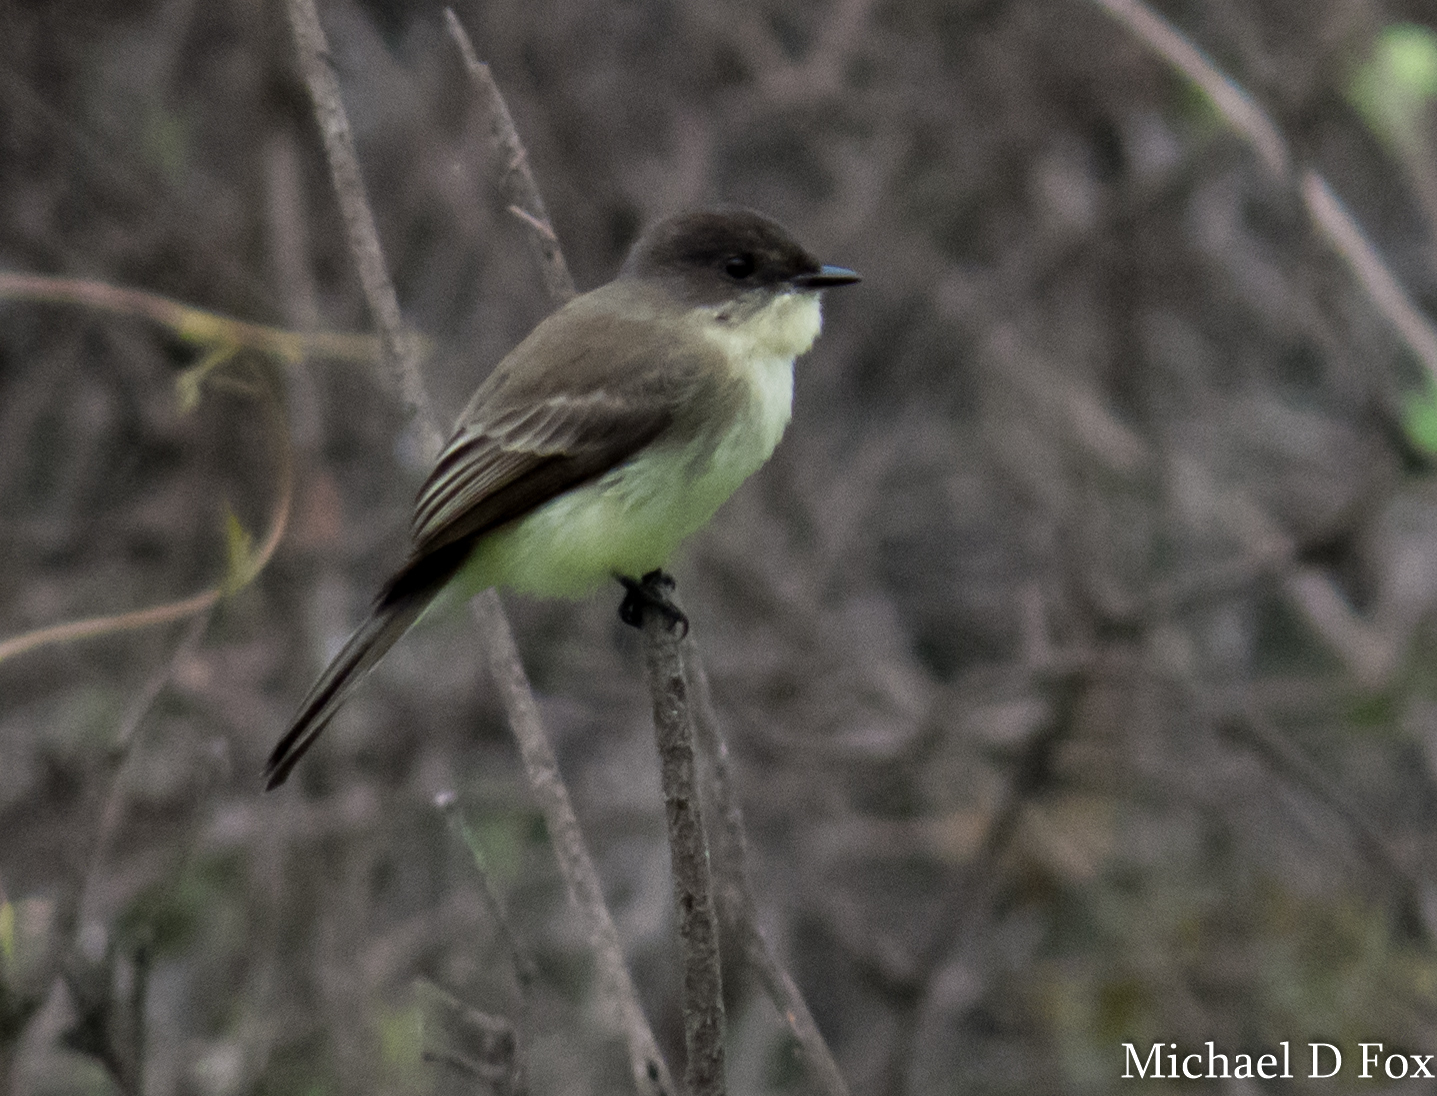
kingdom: Animalia
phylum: Chordata
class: Aves
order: Passeriformes
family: Tyrannidae
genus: Sayornis
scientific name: Sayornis phoebe
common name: Eastern phoebe
